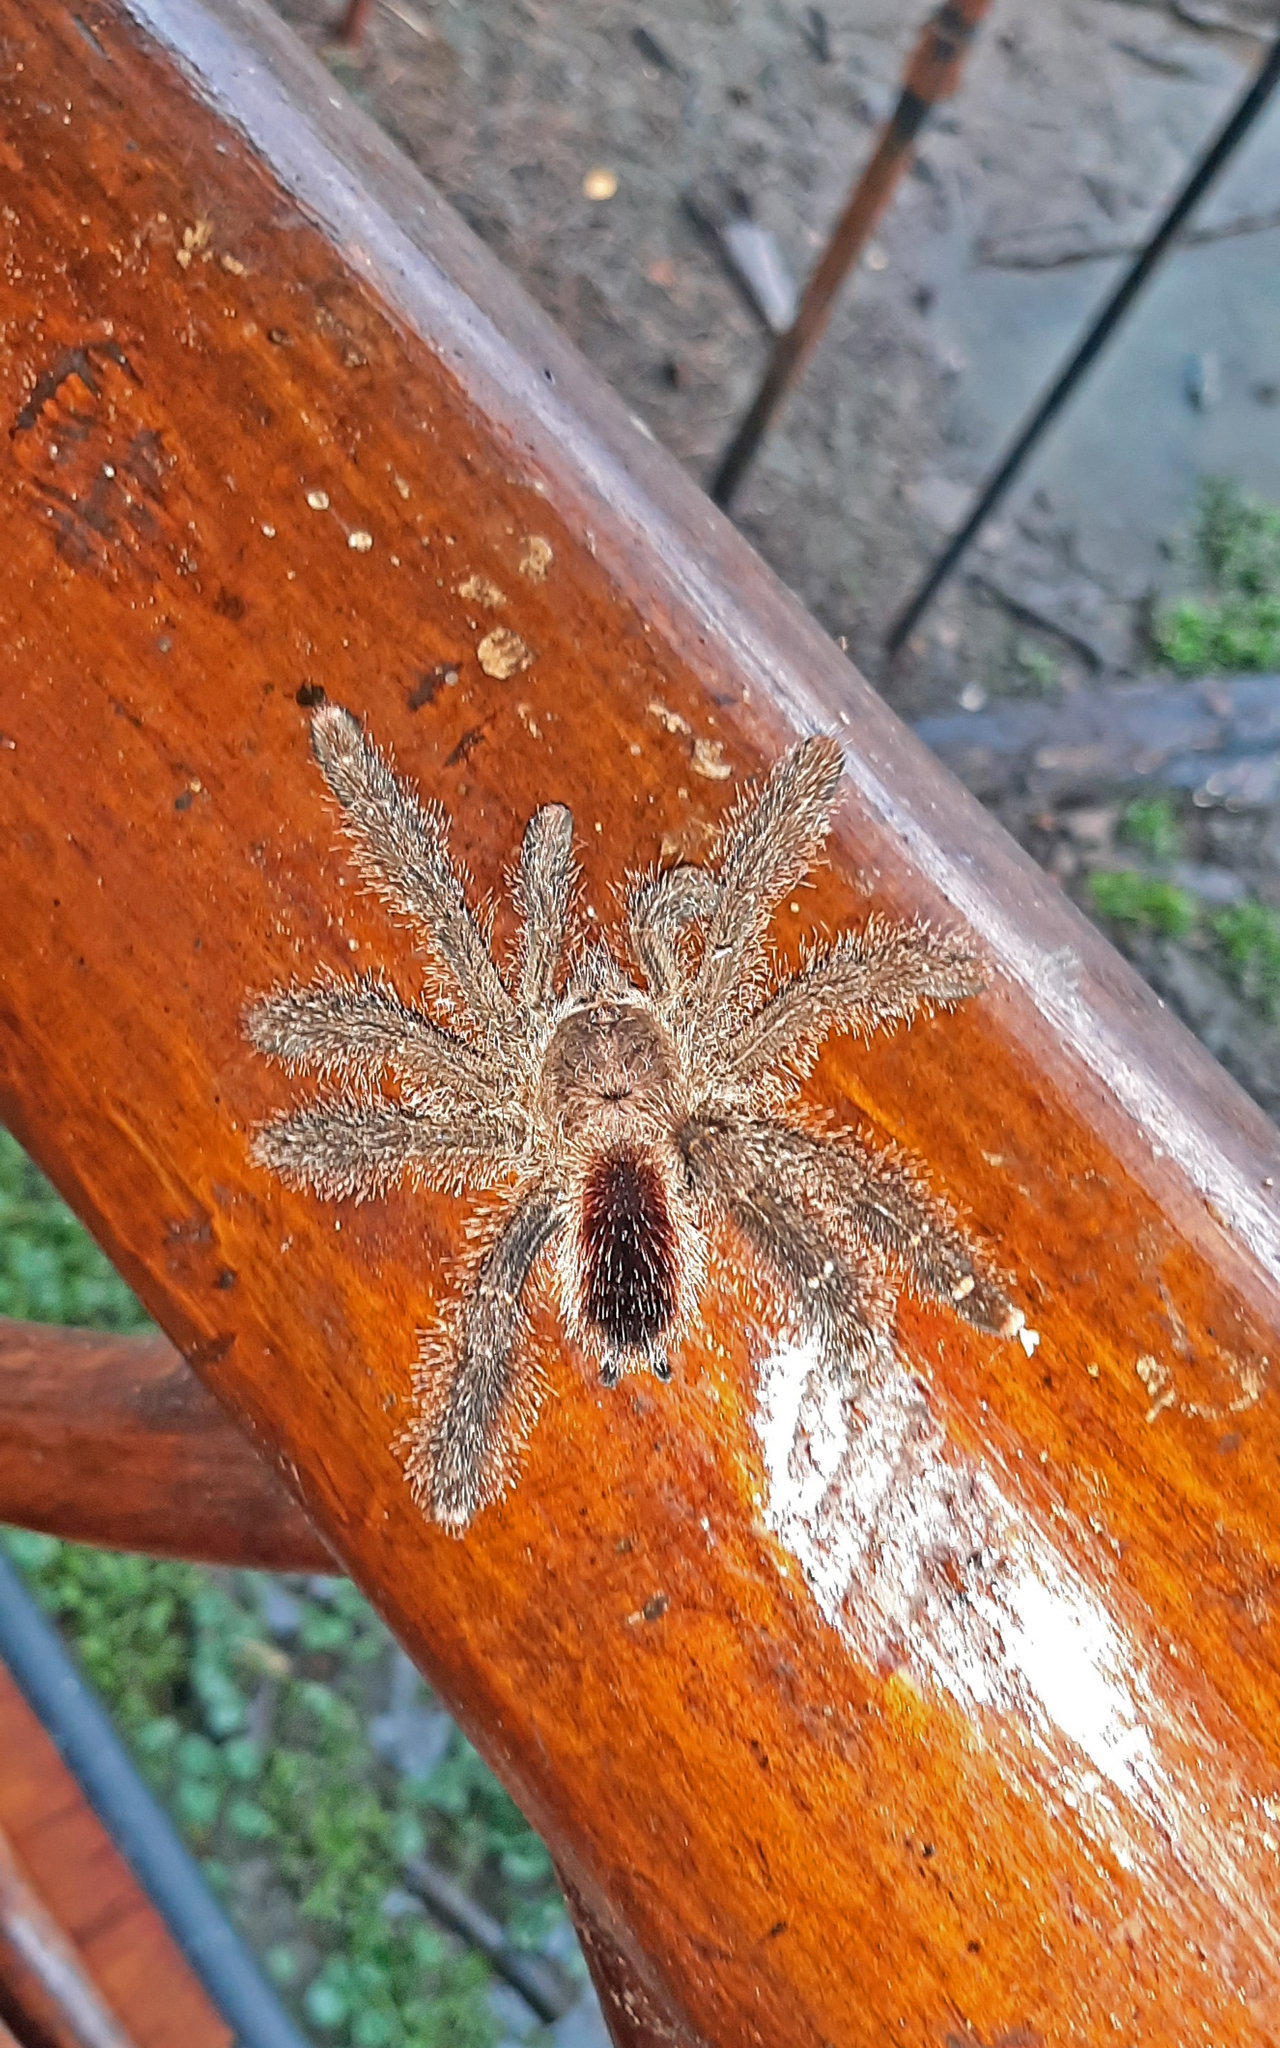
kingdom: Animalia
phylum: Arthropoda
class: Arachnida
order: Araneae
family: Theraphosidae
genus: Avicularia
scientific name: Avicularia juruensis
